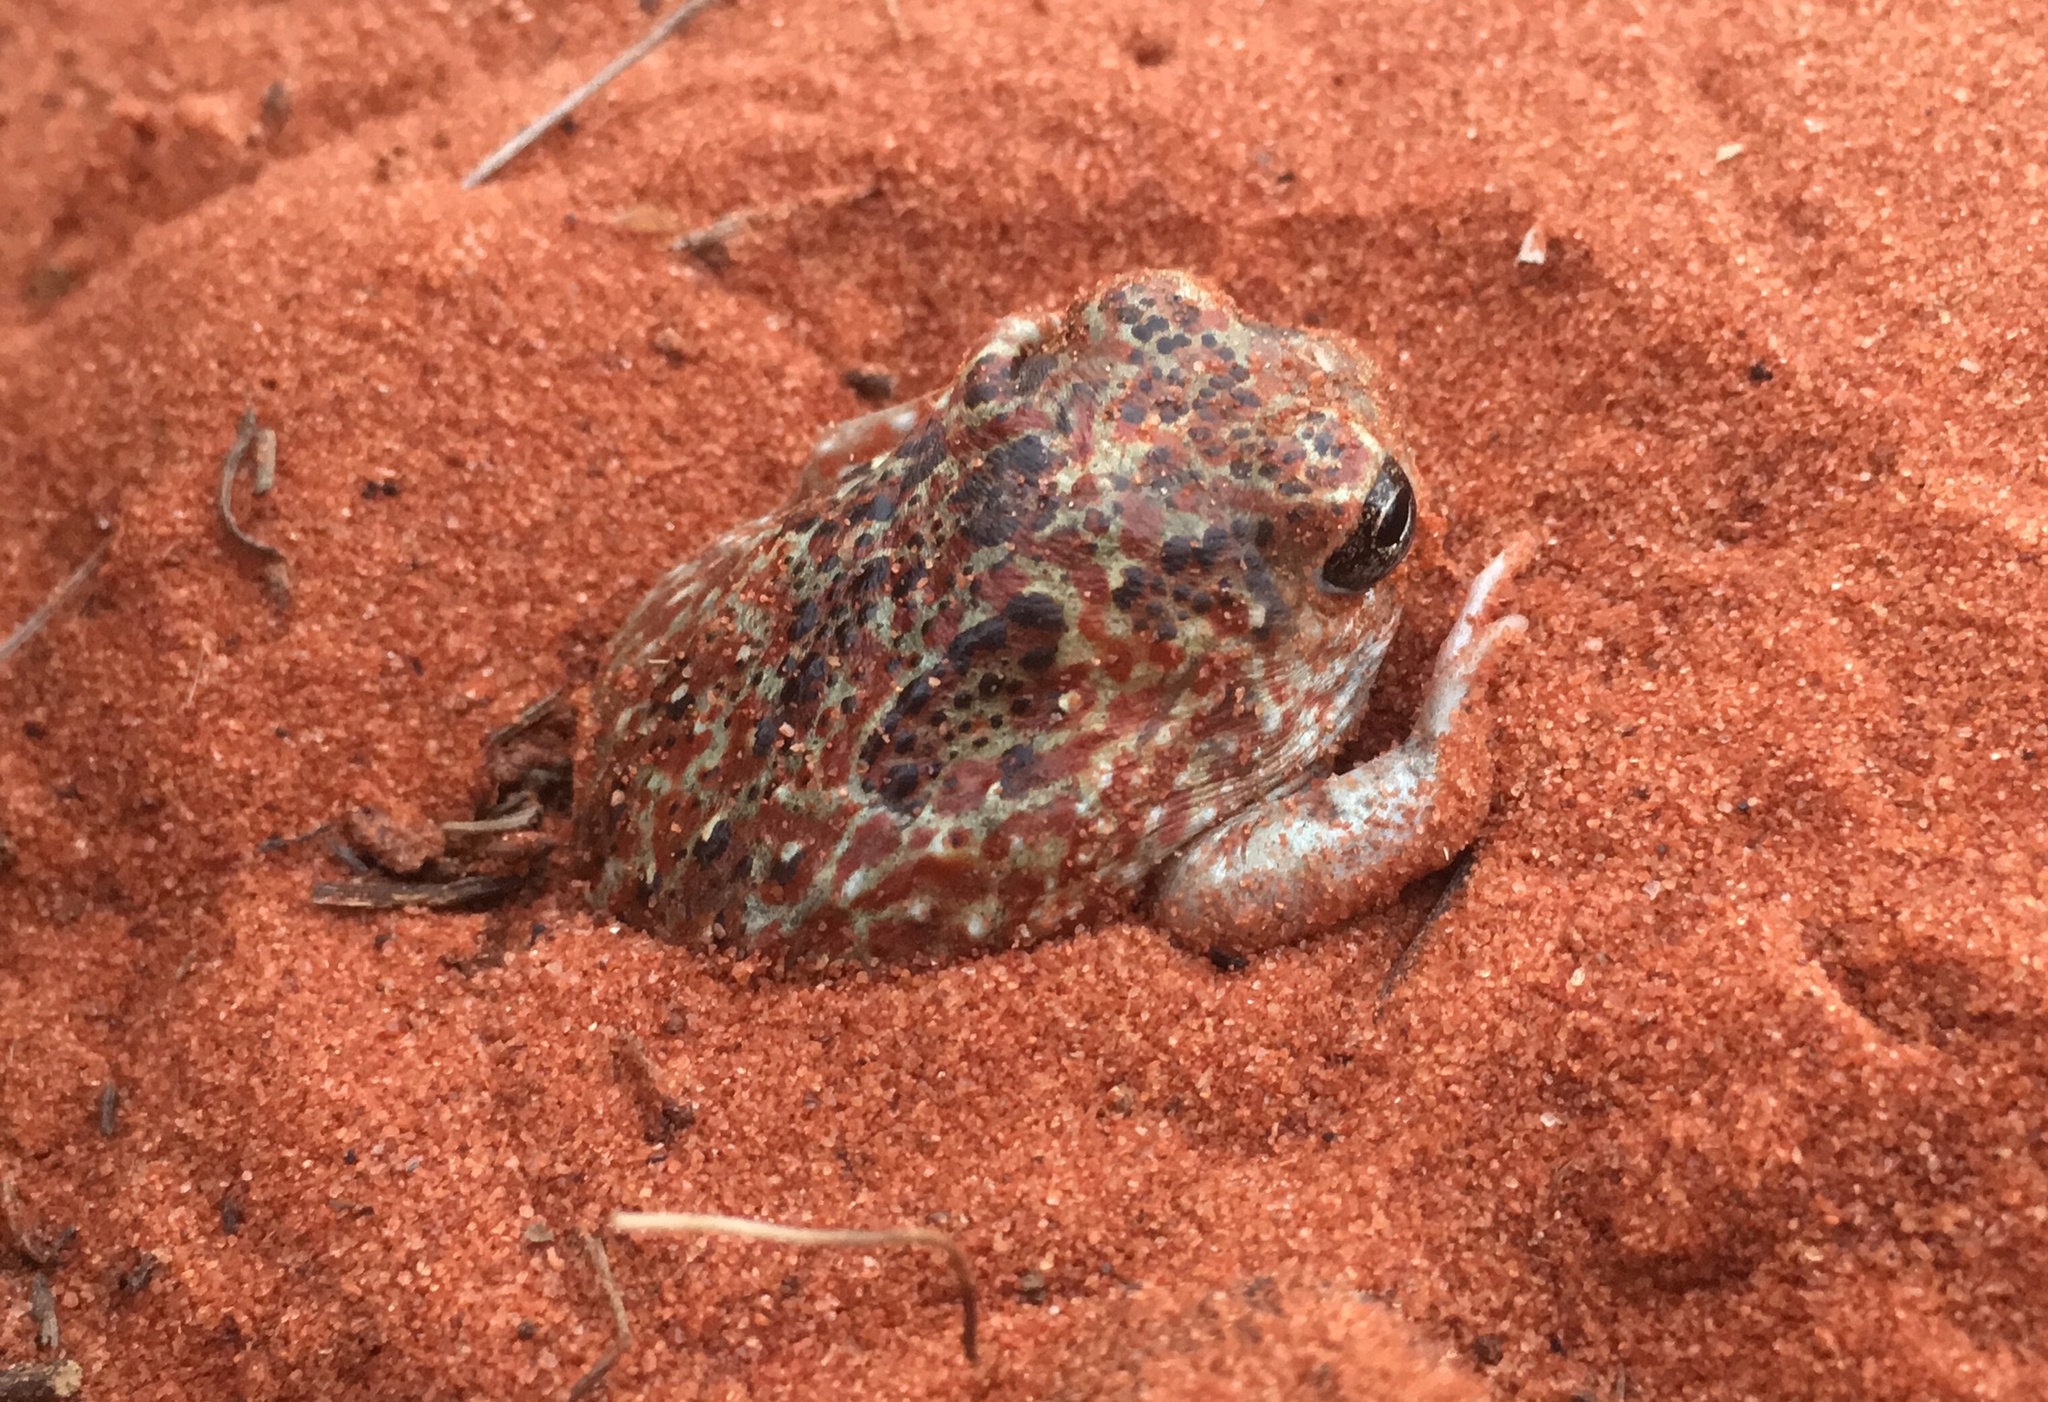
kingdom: Animalia
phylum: Chordata
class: Amphibia
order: Anura
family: Limnodynastidae
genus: Notaden
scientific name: Notaden nichollsi
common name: Desert spadefoot toad
